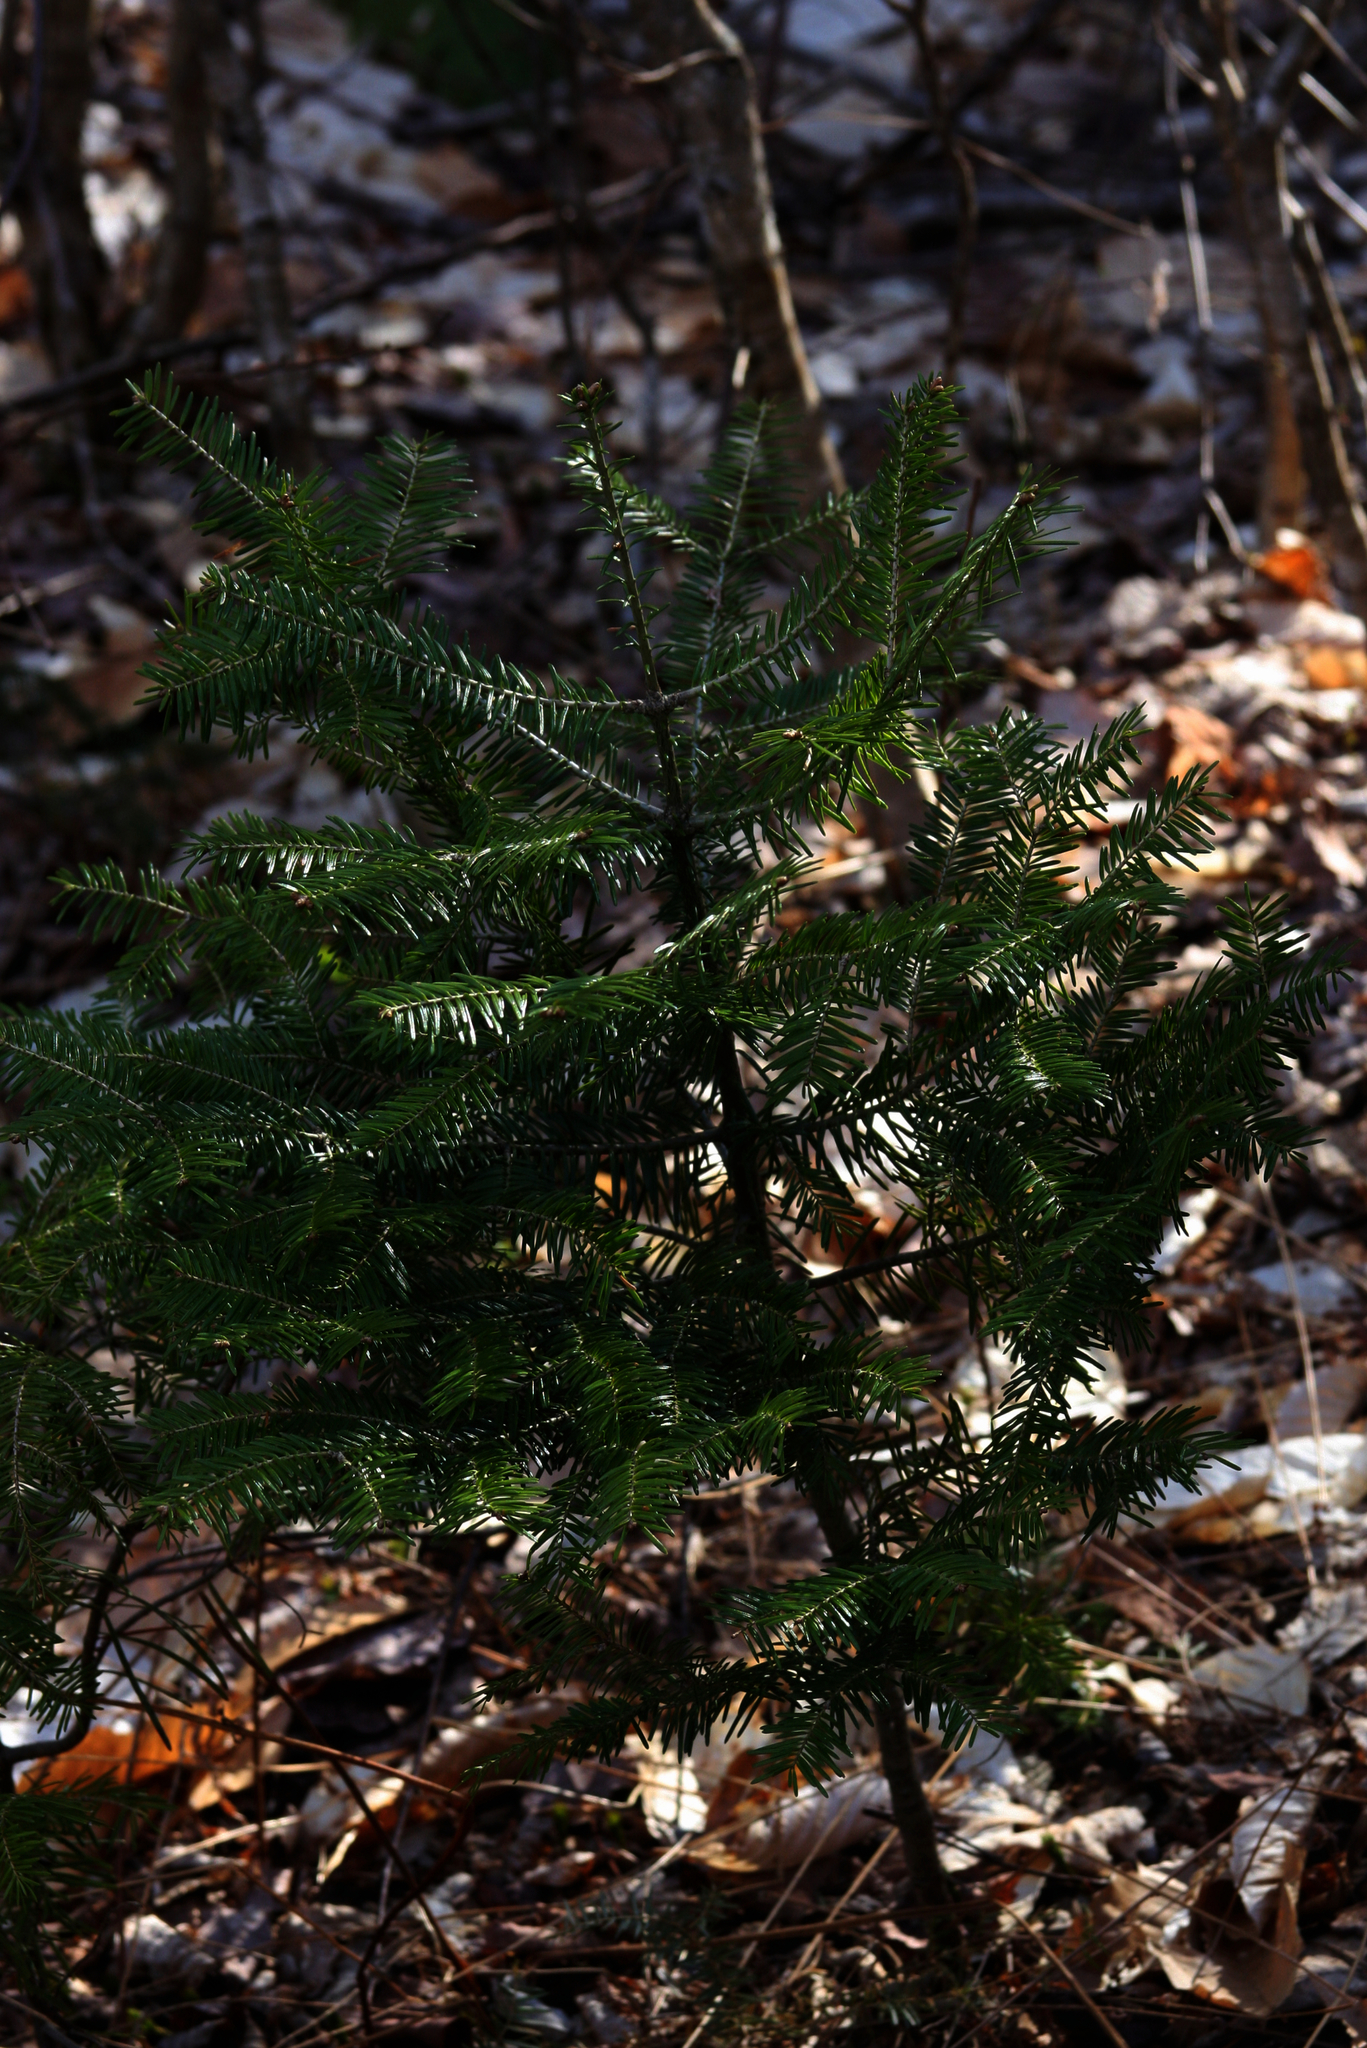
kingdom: Plantae
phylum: Tracheophyta
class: Pinopsida
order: Pinales
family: Pinaceae
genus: Abies
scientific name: Abies balsamea
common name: Balsam fir
